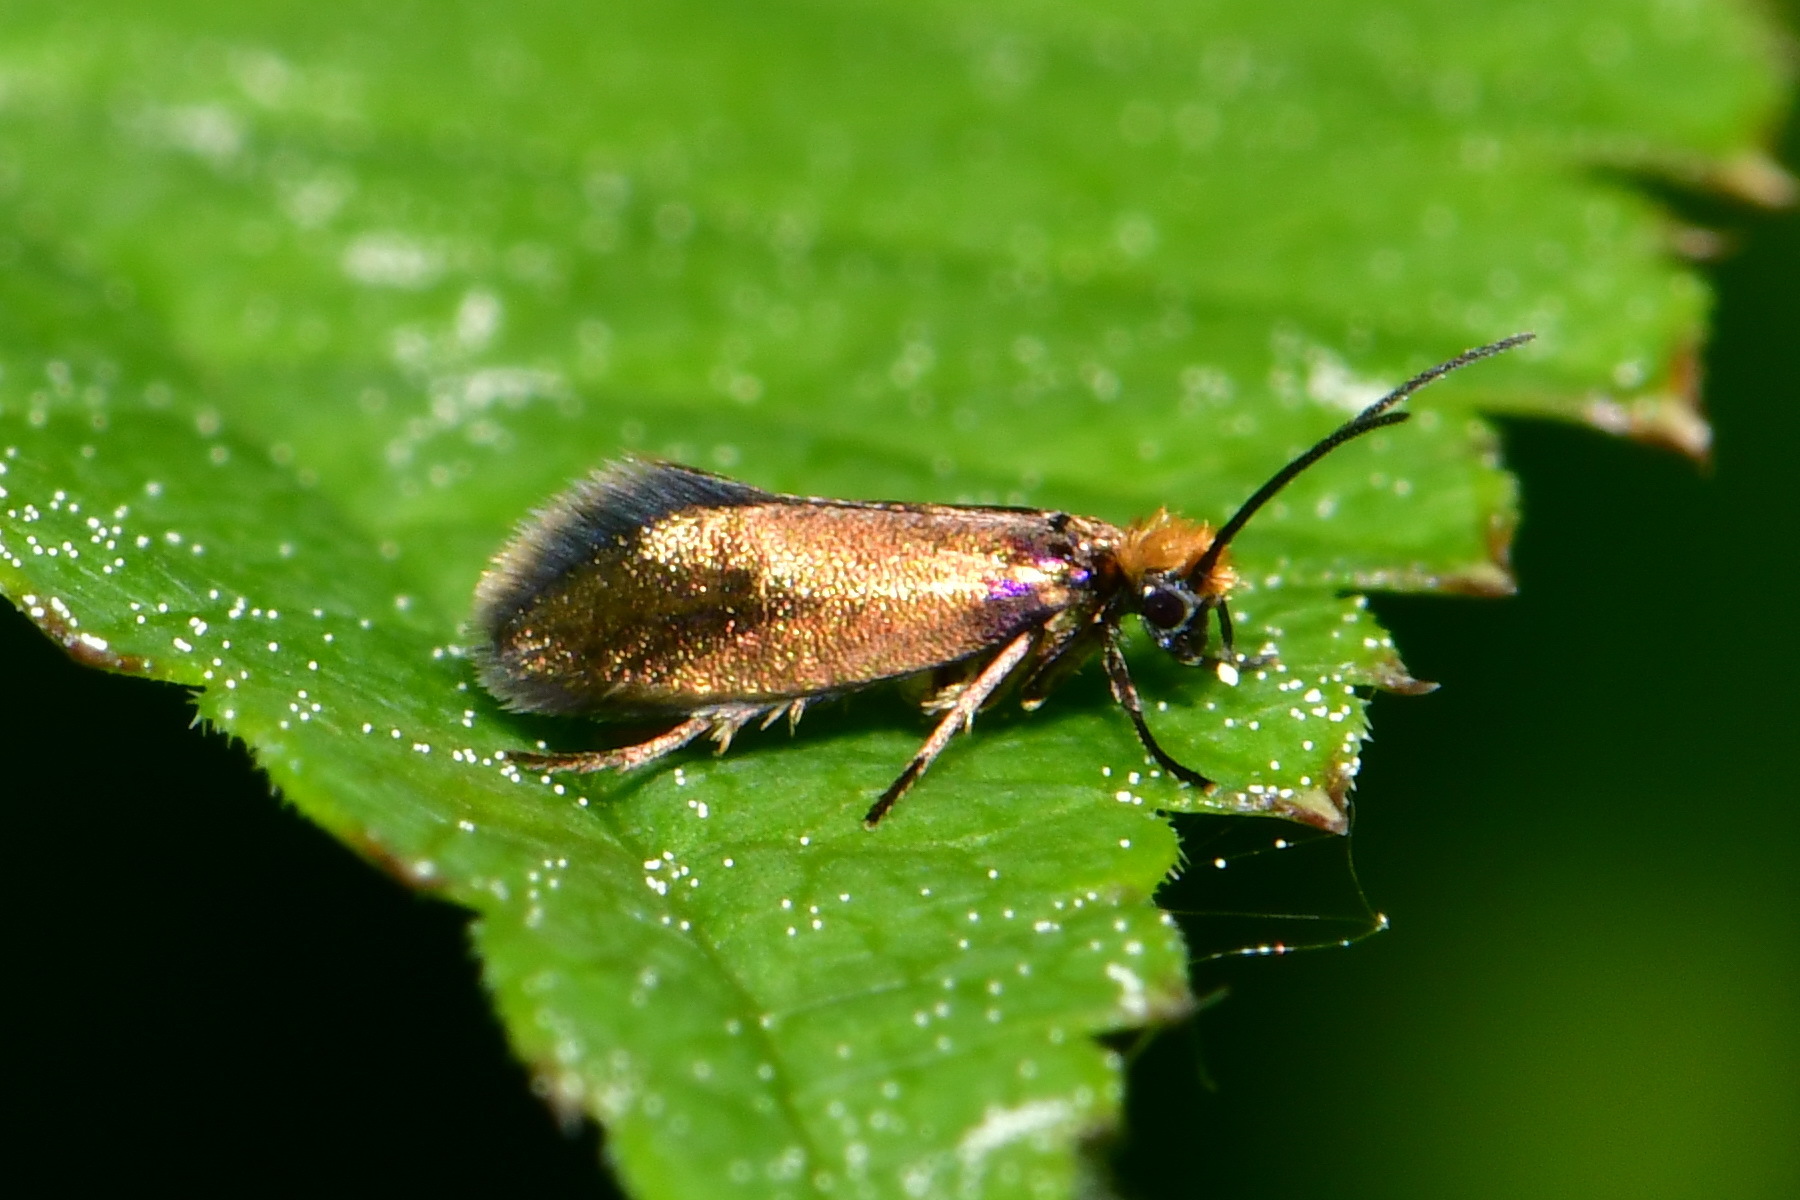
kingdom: Animalia
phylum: Arthropoda
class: Insecta
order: Lepidoptera
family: Micropterigidae
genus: Micropterix
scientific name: Micropterix calthella
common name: Plain gold
